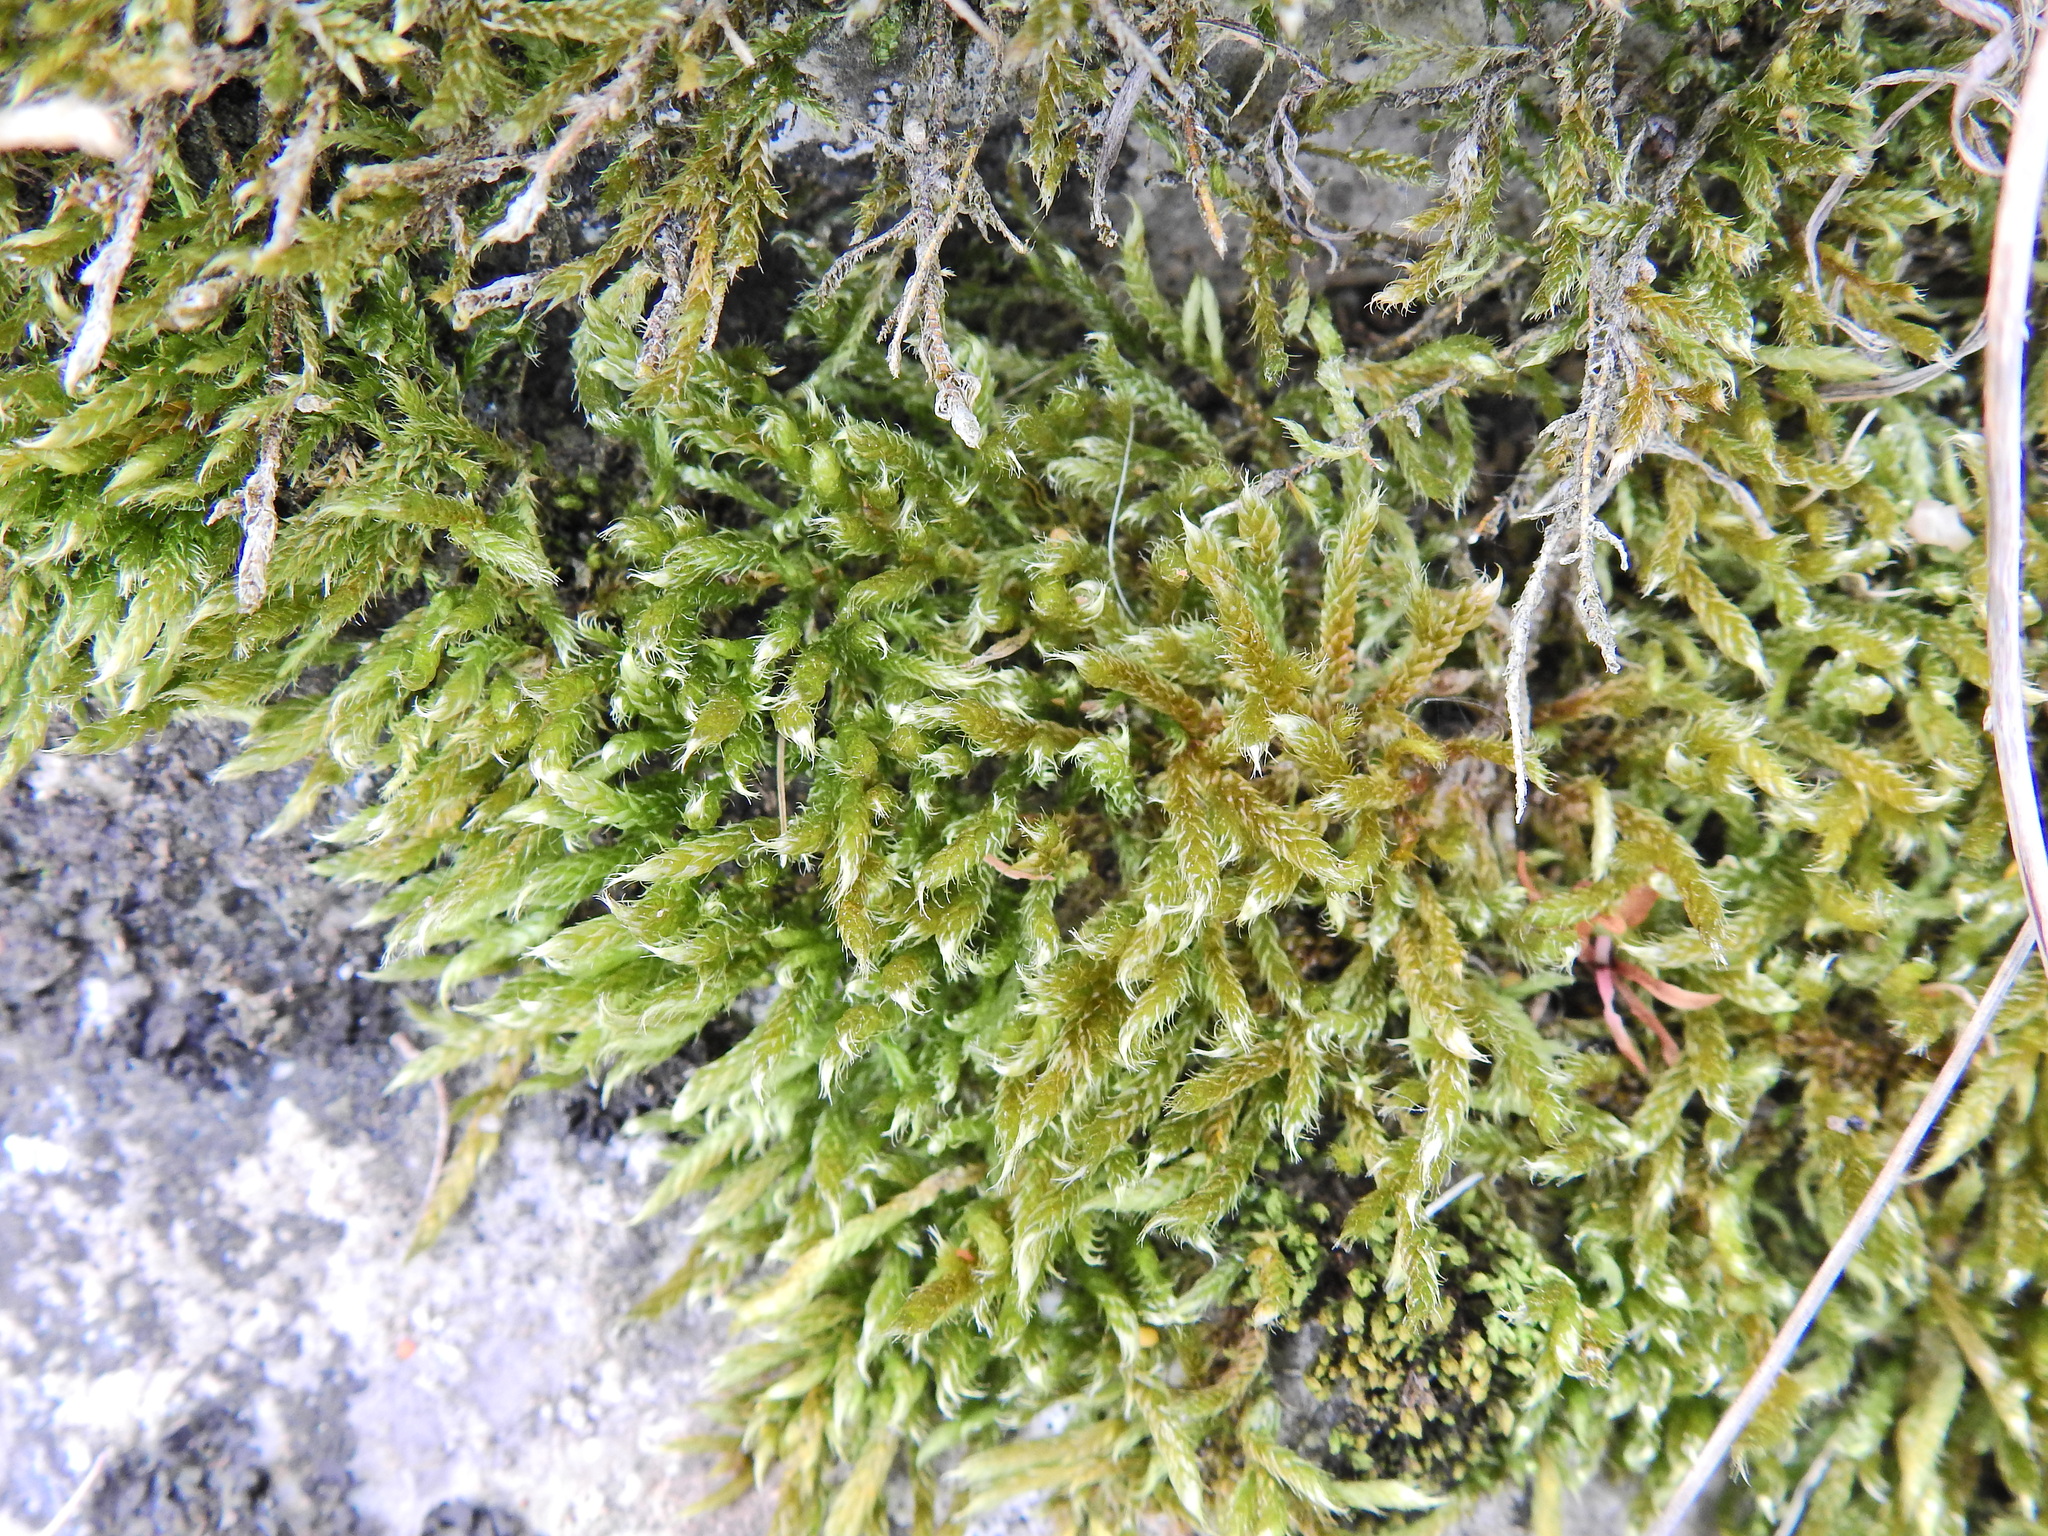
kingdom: Plantae
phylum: Bryophyta
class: Bryopsida
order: Hypnales
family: Hypnaceae
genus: Hypnum
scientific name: Hypnum cupressiforme
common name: Cypress-leaved plait-moss
